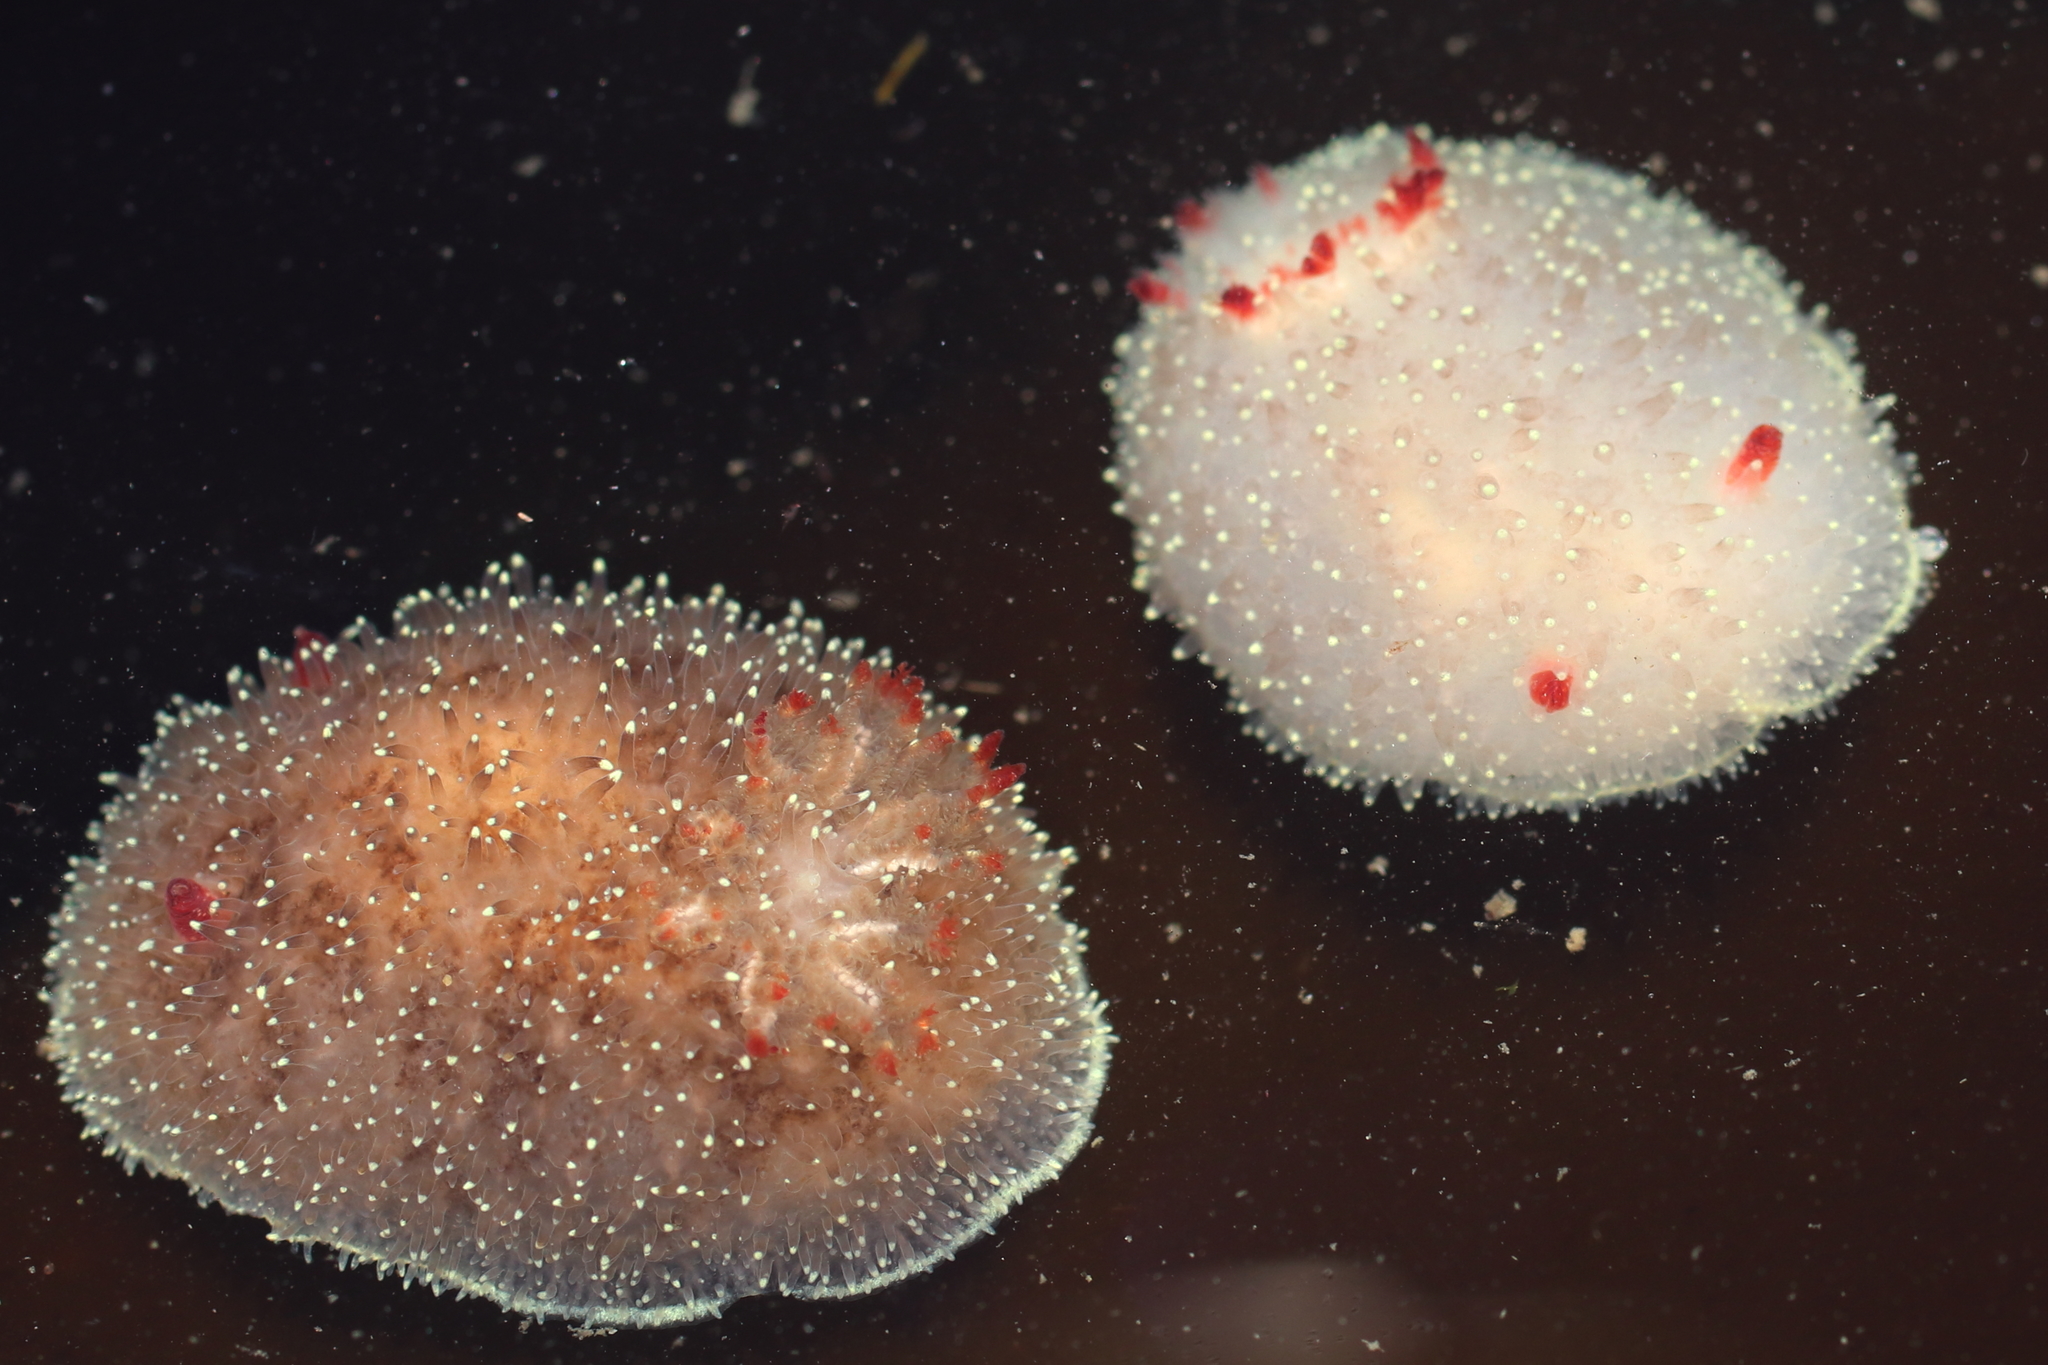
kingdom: Animalia
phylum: Mollusca
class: Gastropoda
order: Nudibranchia
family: Onchidorididae
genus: Acanthodoris
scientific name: Acanthodoris nanaimoensis
